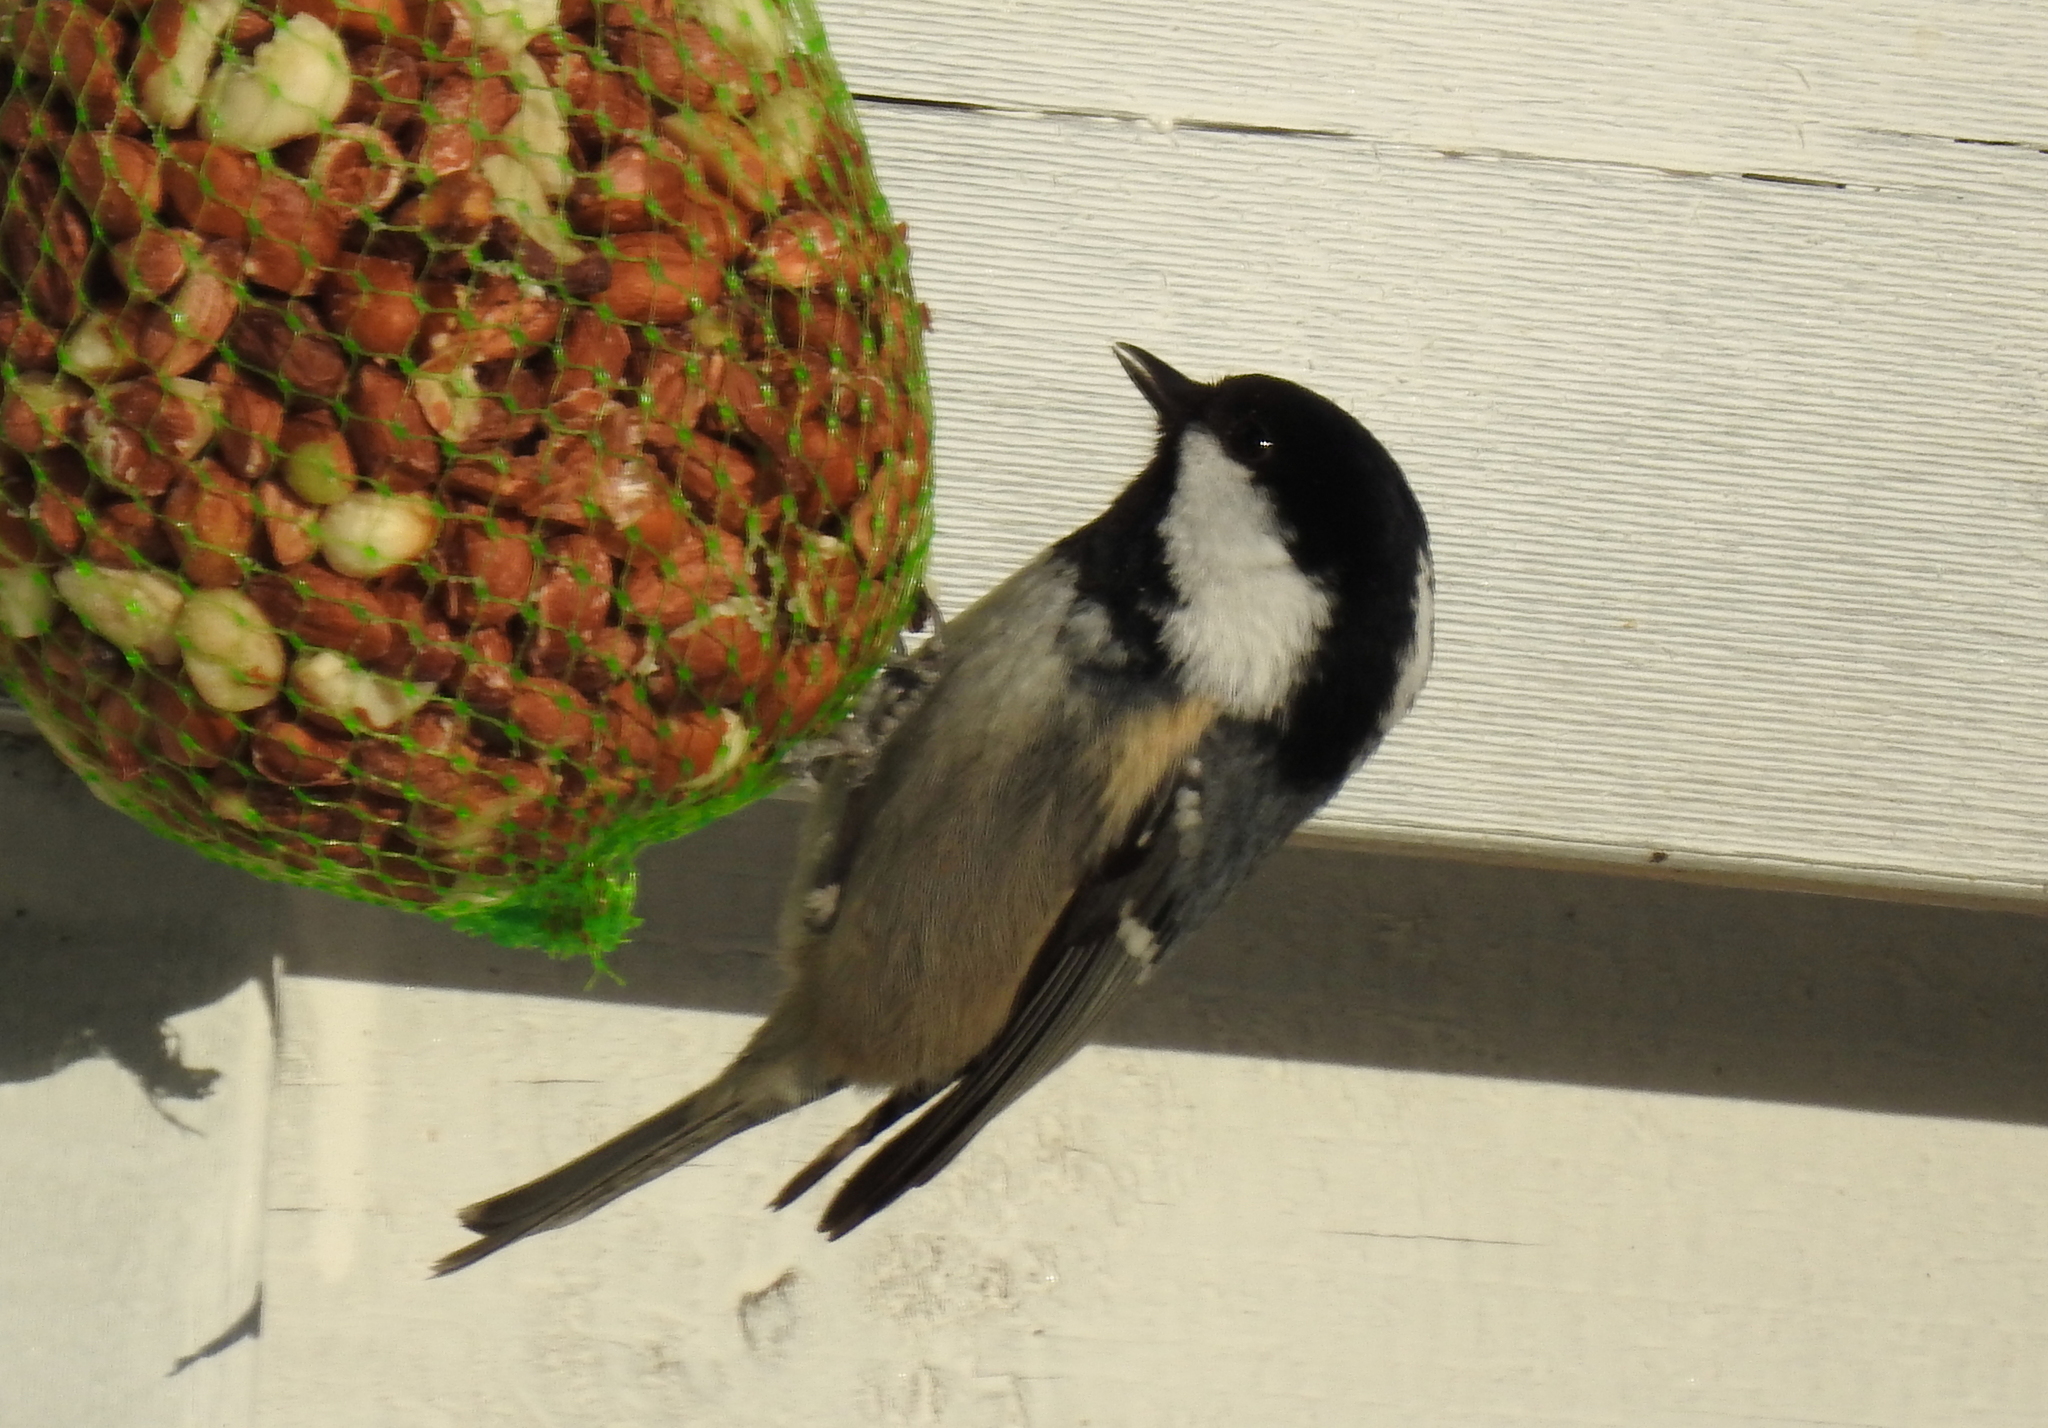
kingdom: Animalia
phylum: Chordata
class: Aves
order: Passeriformes
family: Paridae
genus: Periparus
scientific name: Periparus ater
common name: Coal tit
